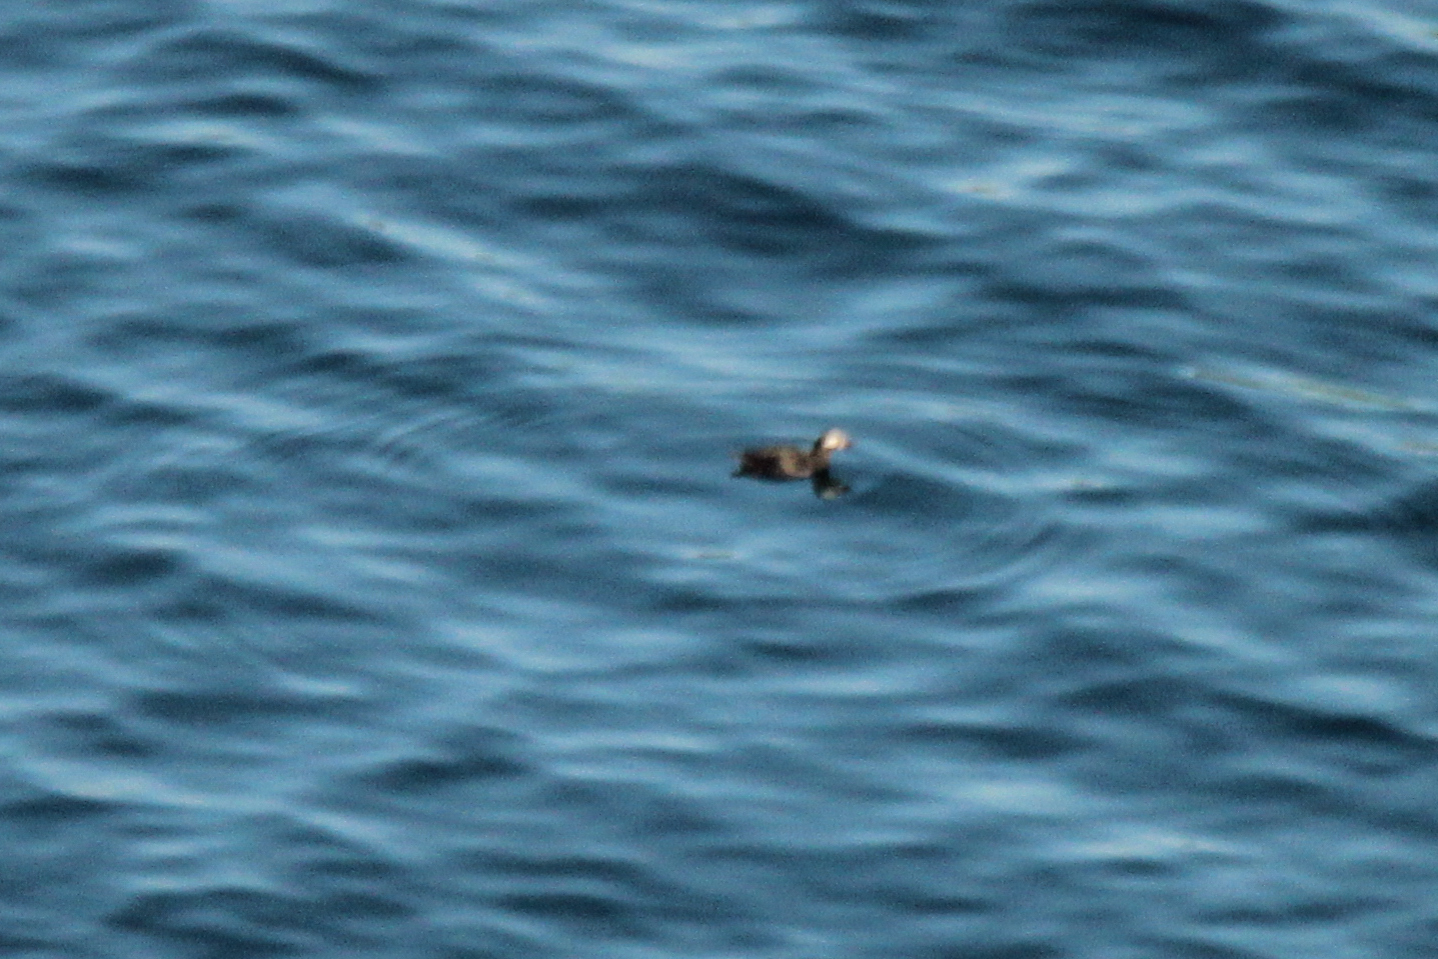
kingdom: Animalia
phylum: Chordata
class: Aves
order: Charadriiformes
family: Alcidae
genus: Cepphus
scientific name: Cepphus carbo
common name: Spectacled guillemot
